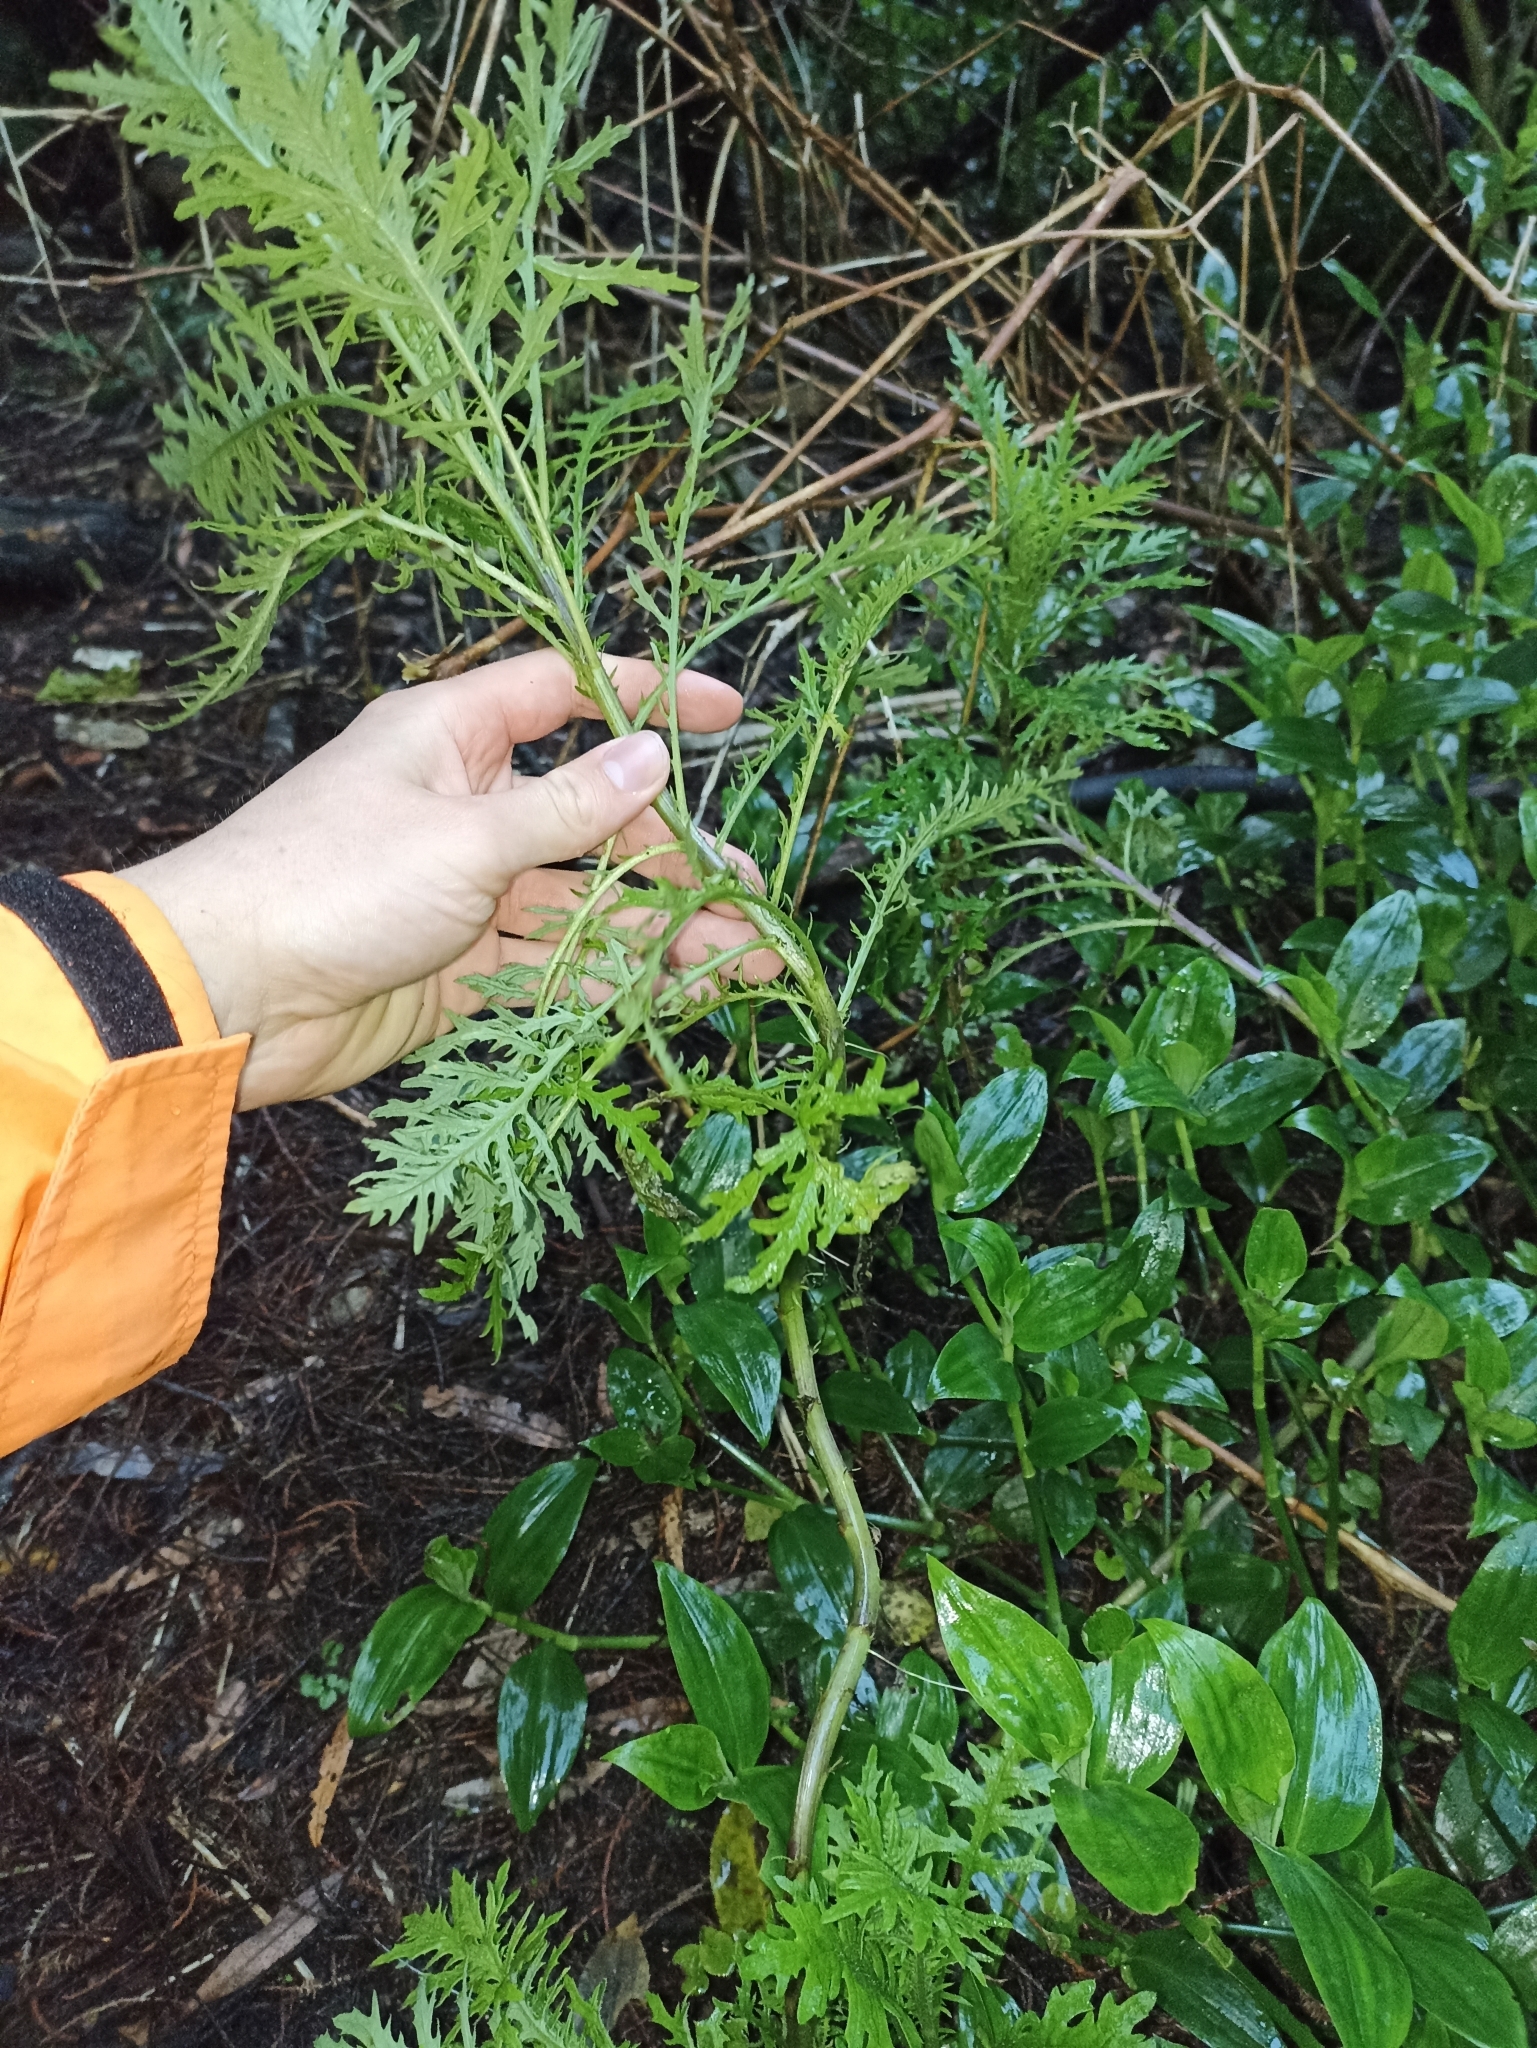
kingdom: Plantae
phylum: Tracheophyta
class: Magnoliopsida
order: Asterales
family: Asteraceae
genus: Senecio
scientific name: Senecio bipinnatisectus
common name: Australian fireweed
